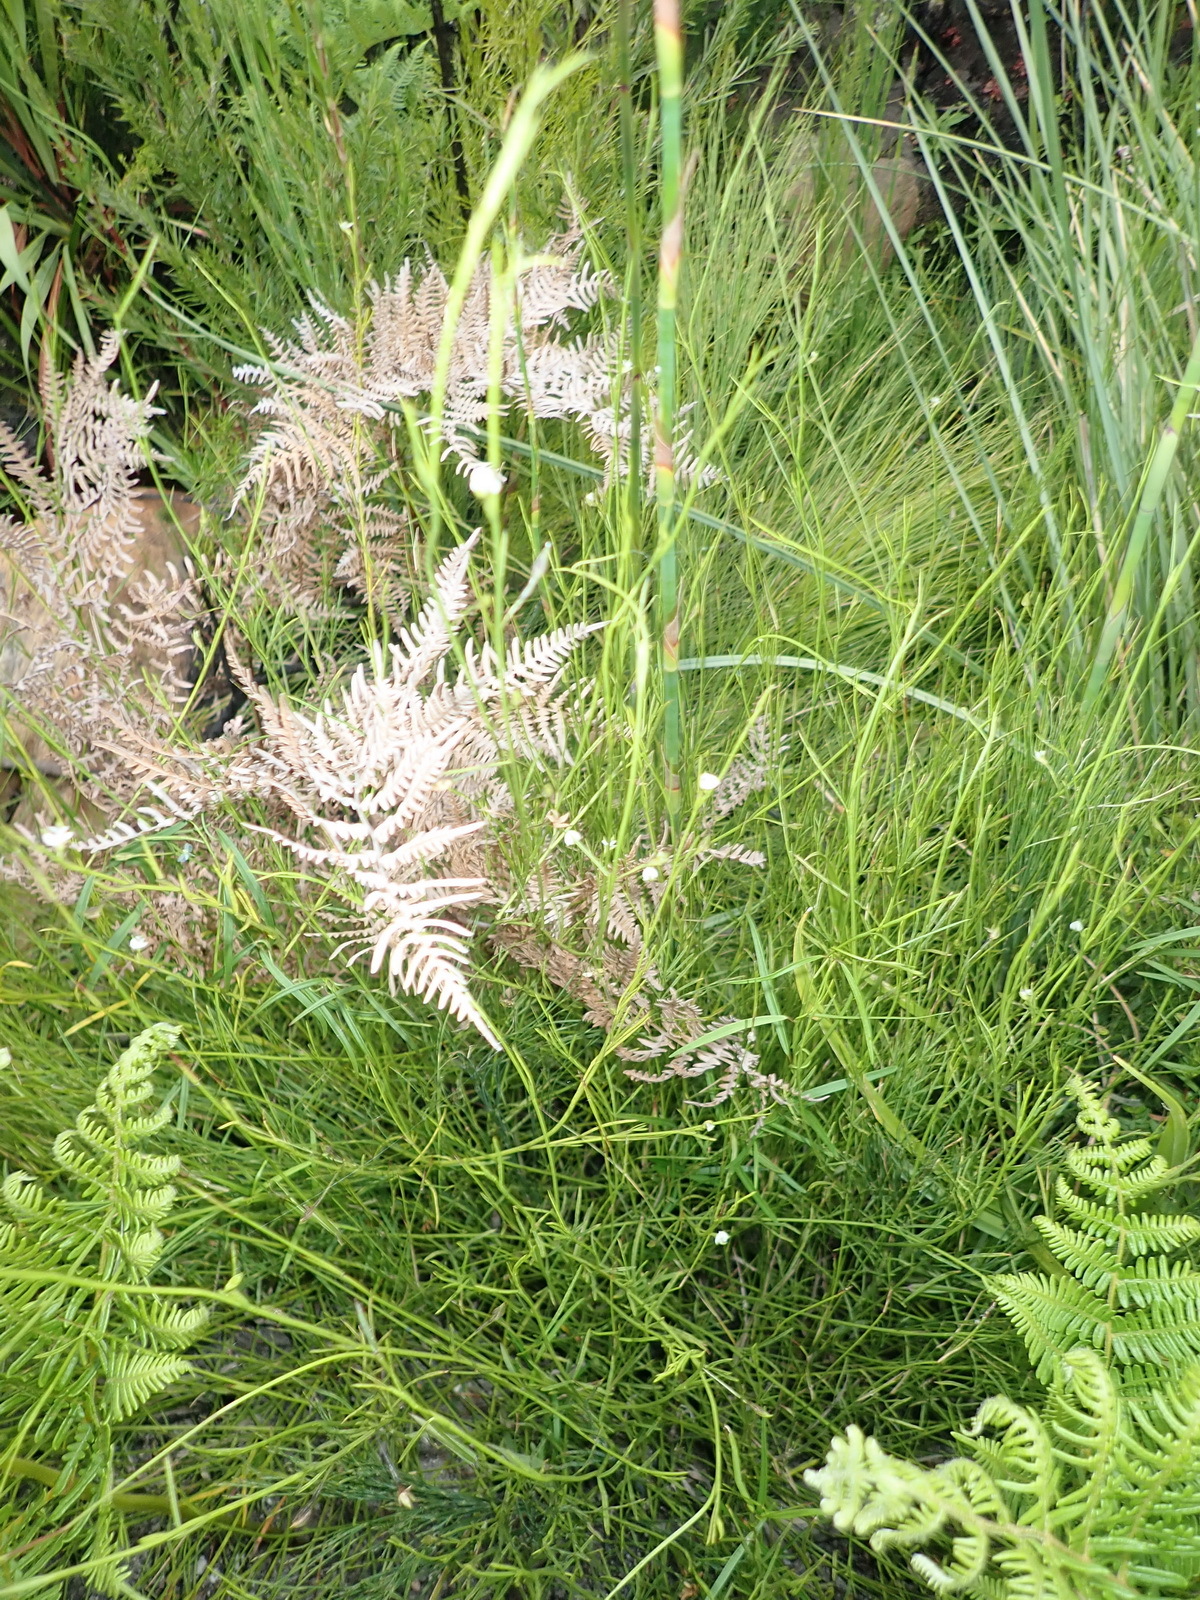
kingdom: Plantae
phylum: Tracheophyta
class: Magnoliopsida
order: Fabales
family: Fabaceae
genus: Psoralea
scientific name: Psoralea
